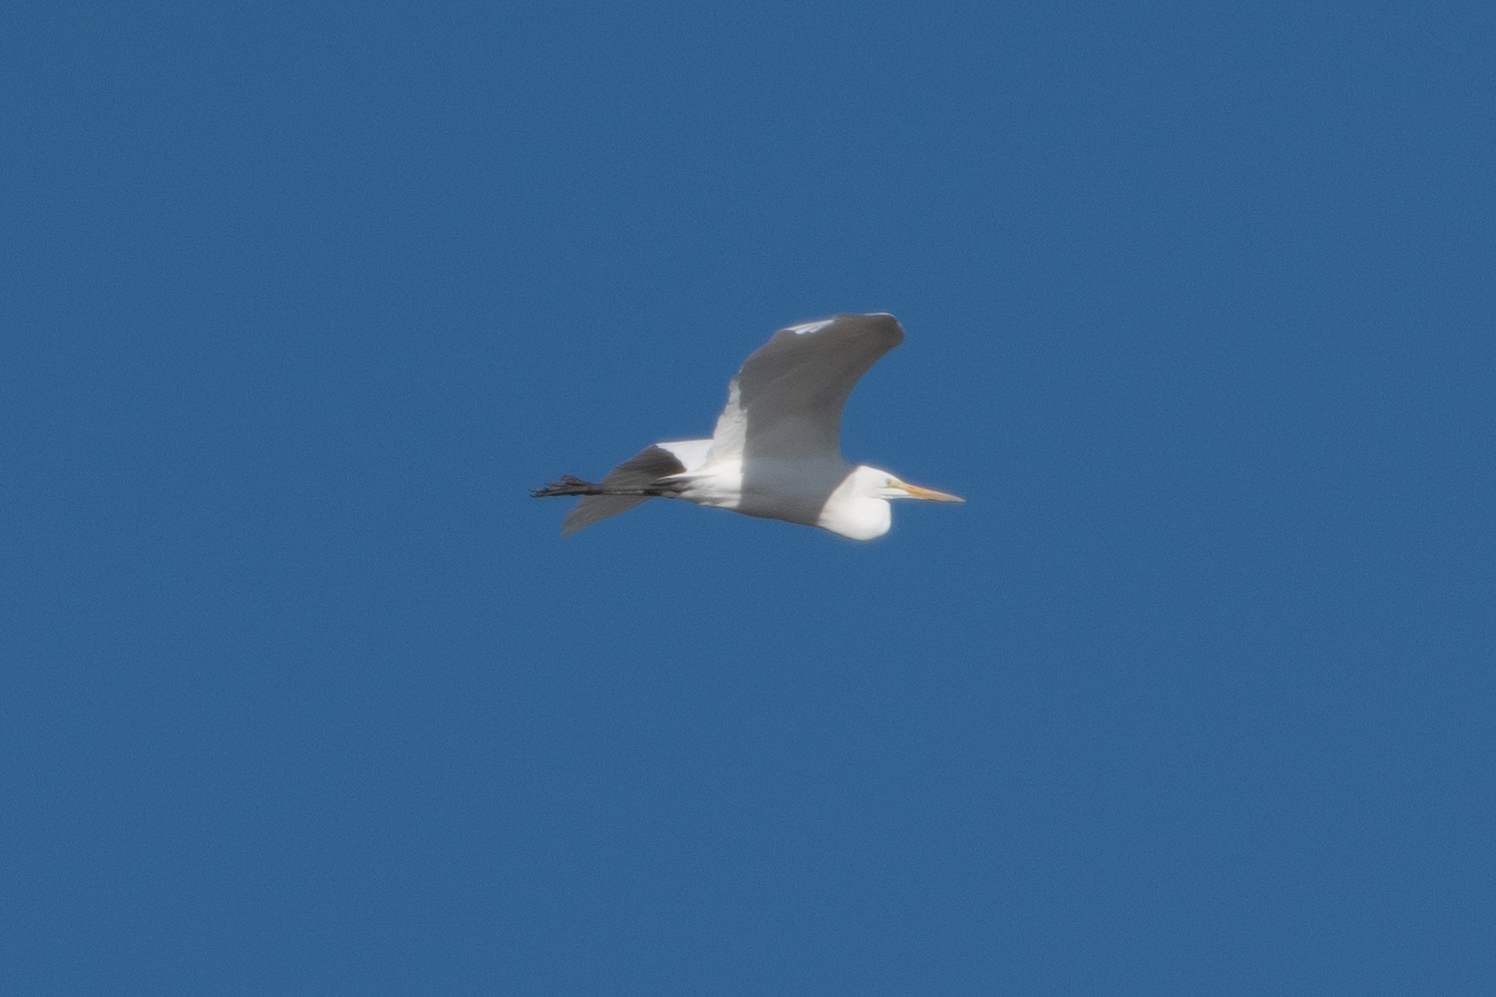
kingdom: Animalia
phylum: Chordata
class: Aves
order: Pelecaniformes
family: Ardeidae
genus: Ardea
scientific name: Ardea alba
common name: Great egret
